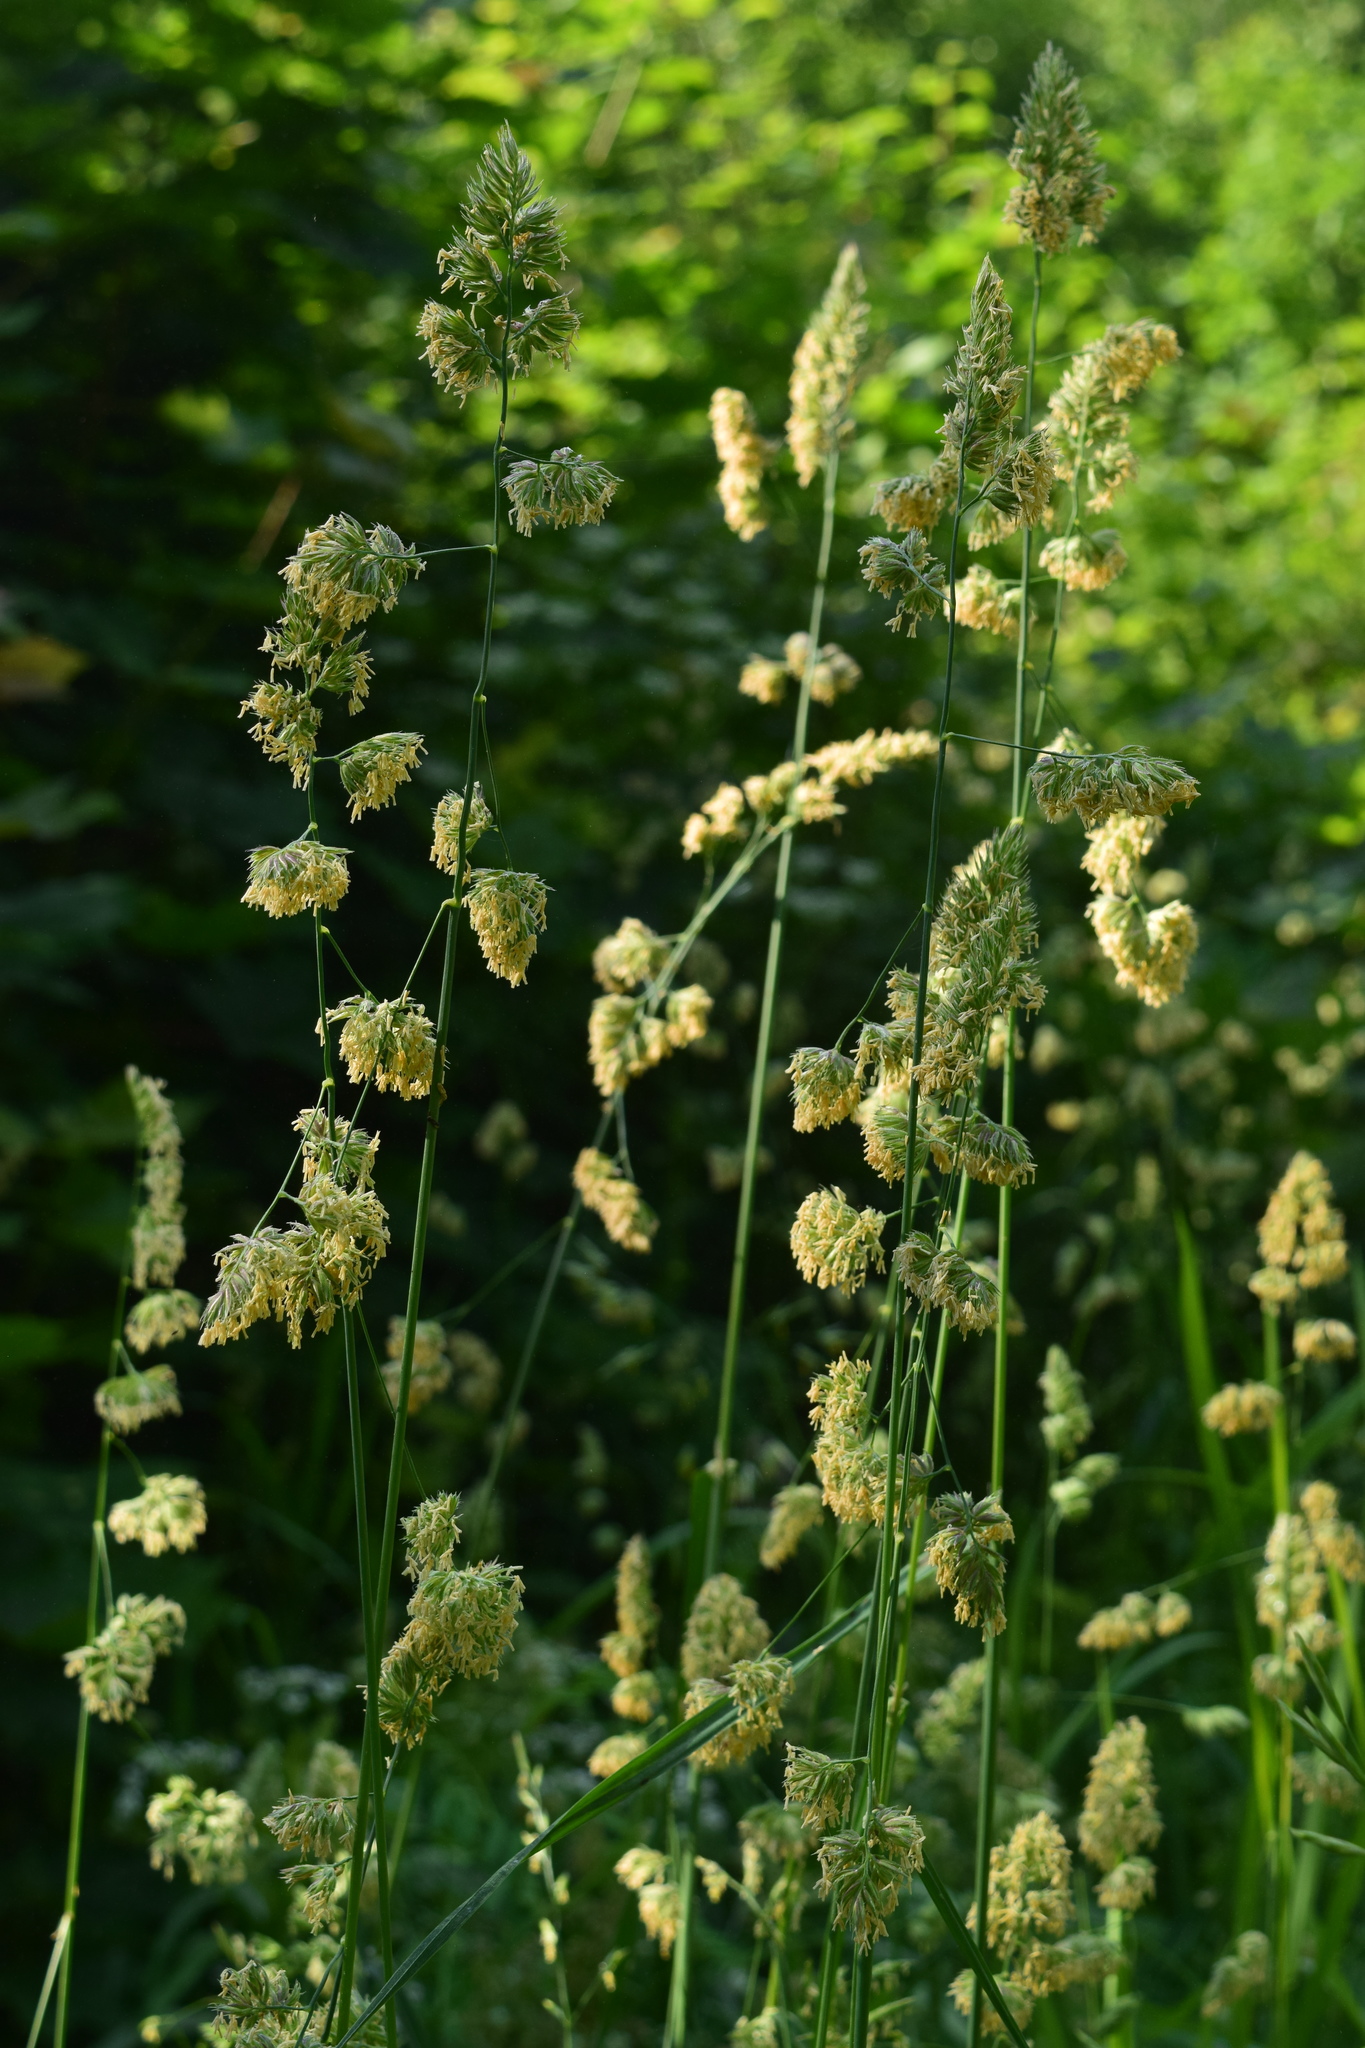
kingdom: Plantae
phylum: Tracheophyta
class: Liliopsida
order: Poales
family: Poaceae
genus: Dactylis
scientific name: Dactylis glomerata
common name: Orchardgrass
